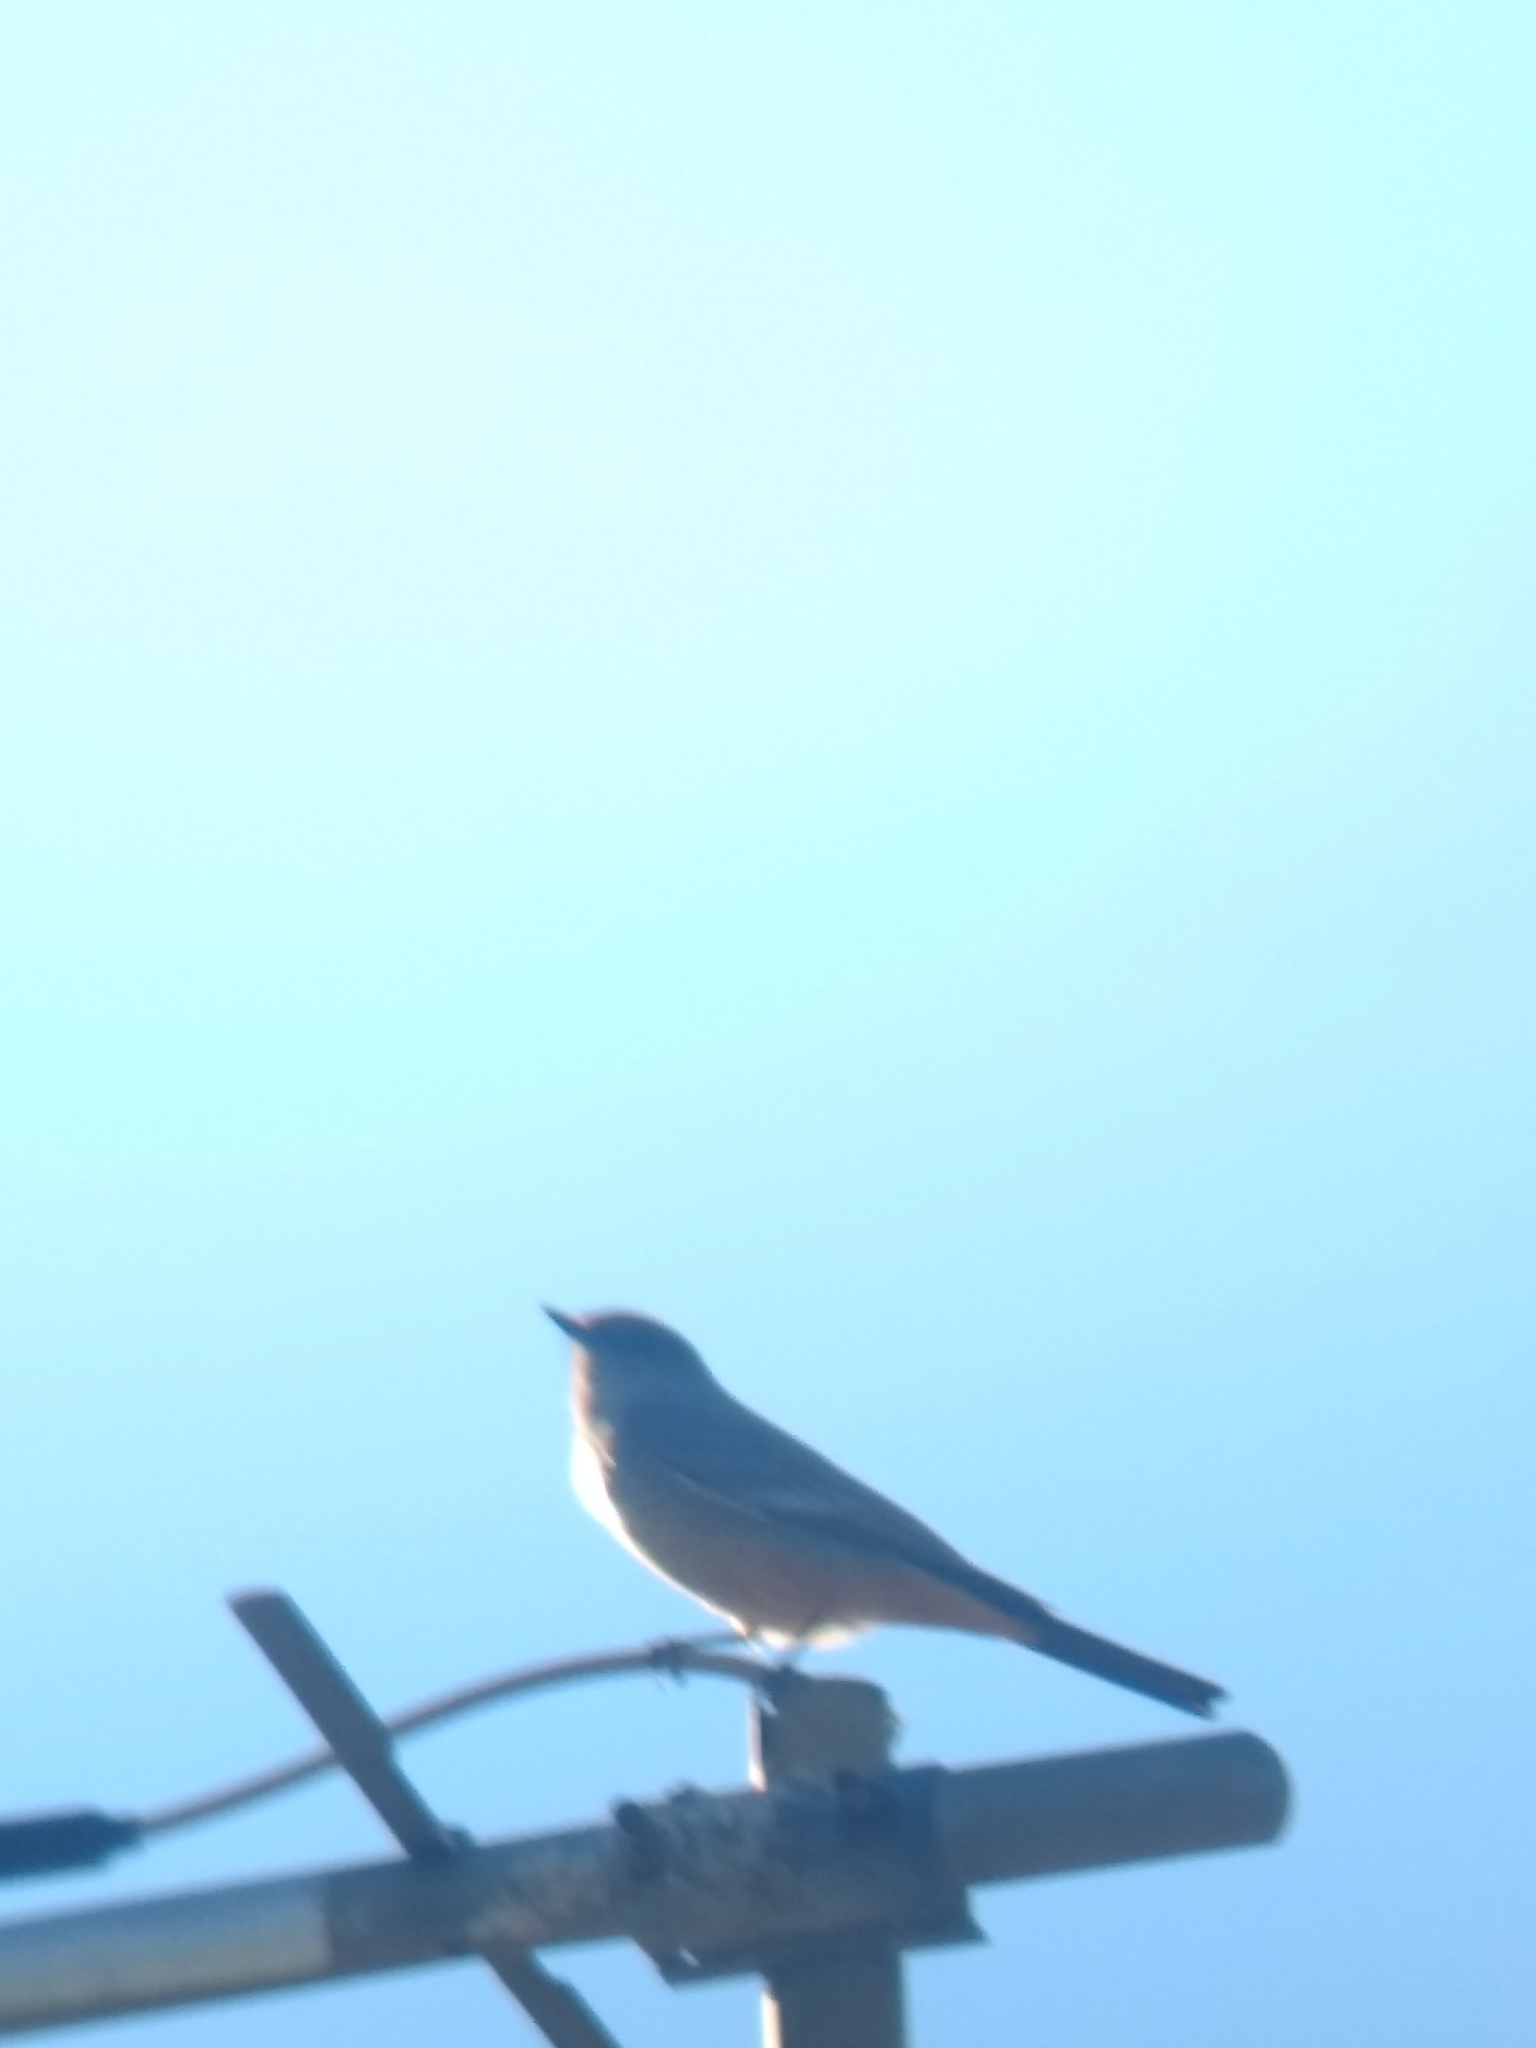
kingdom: Animalia
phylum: Chordata
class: Aves
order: Passeriformes
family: Tyrannidae
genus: Sayornis
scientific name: Sayornis saya
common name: Say's phoebe
